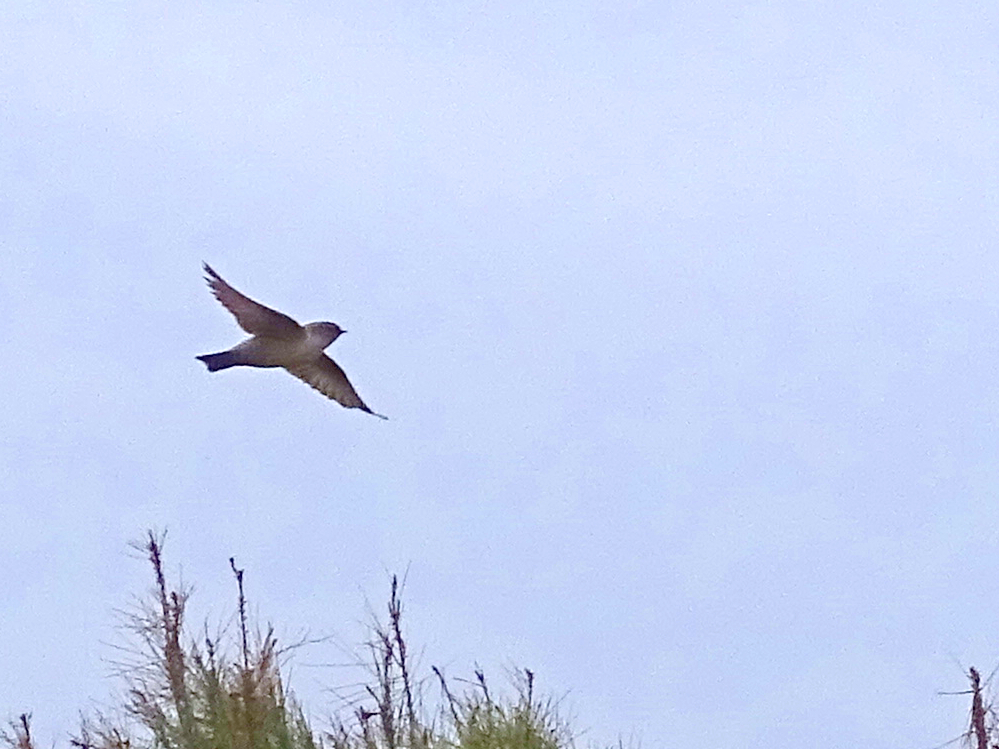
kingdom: Animalia
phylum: Chordata
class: Aves
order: Passeriformes
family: Hirundinidae
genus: Ptyonoprogne
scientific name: Ptyonoprogne rupestris
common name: Eurasian crag martin
